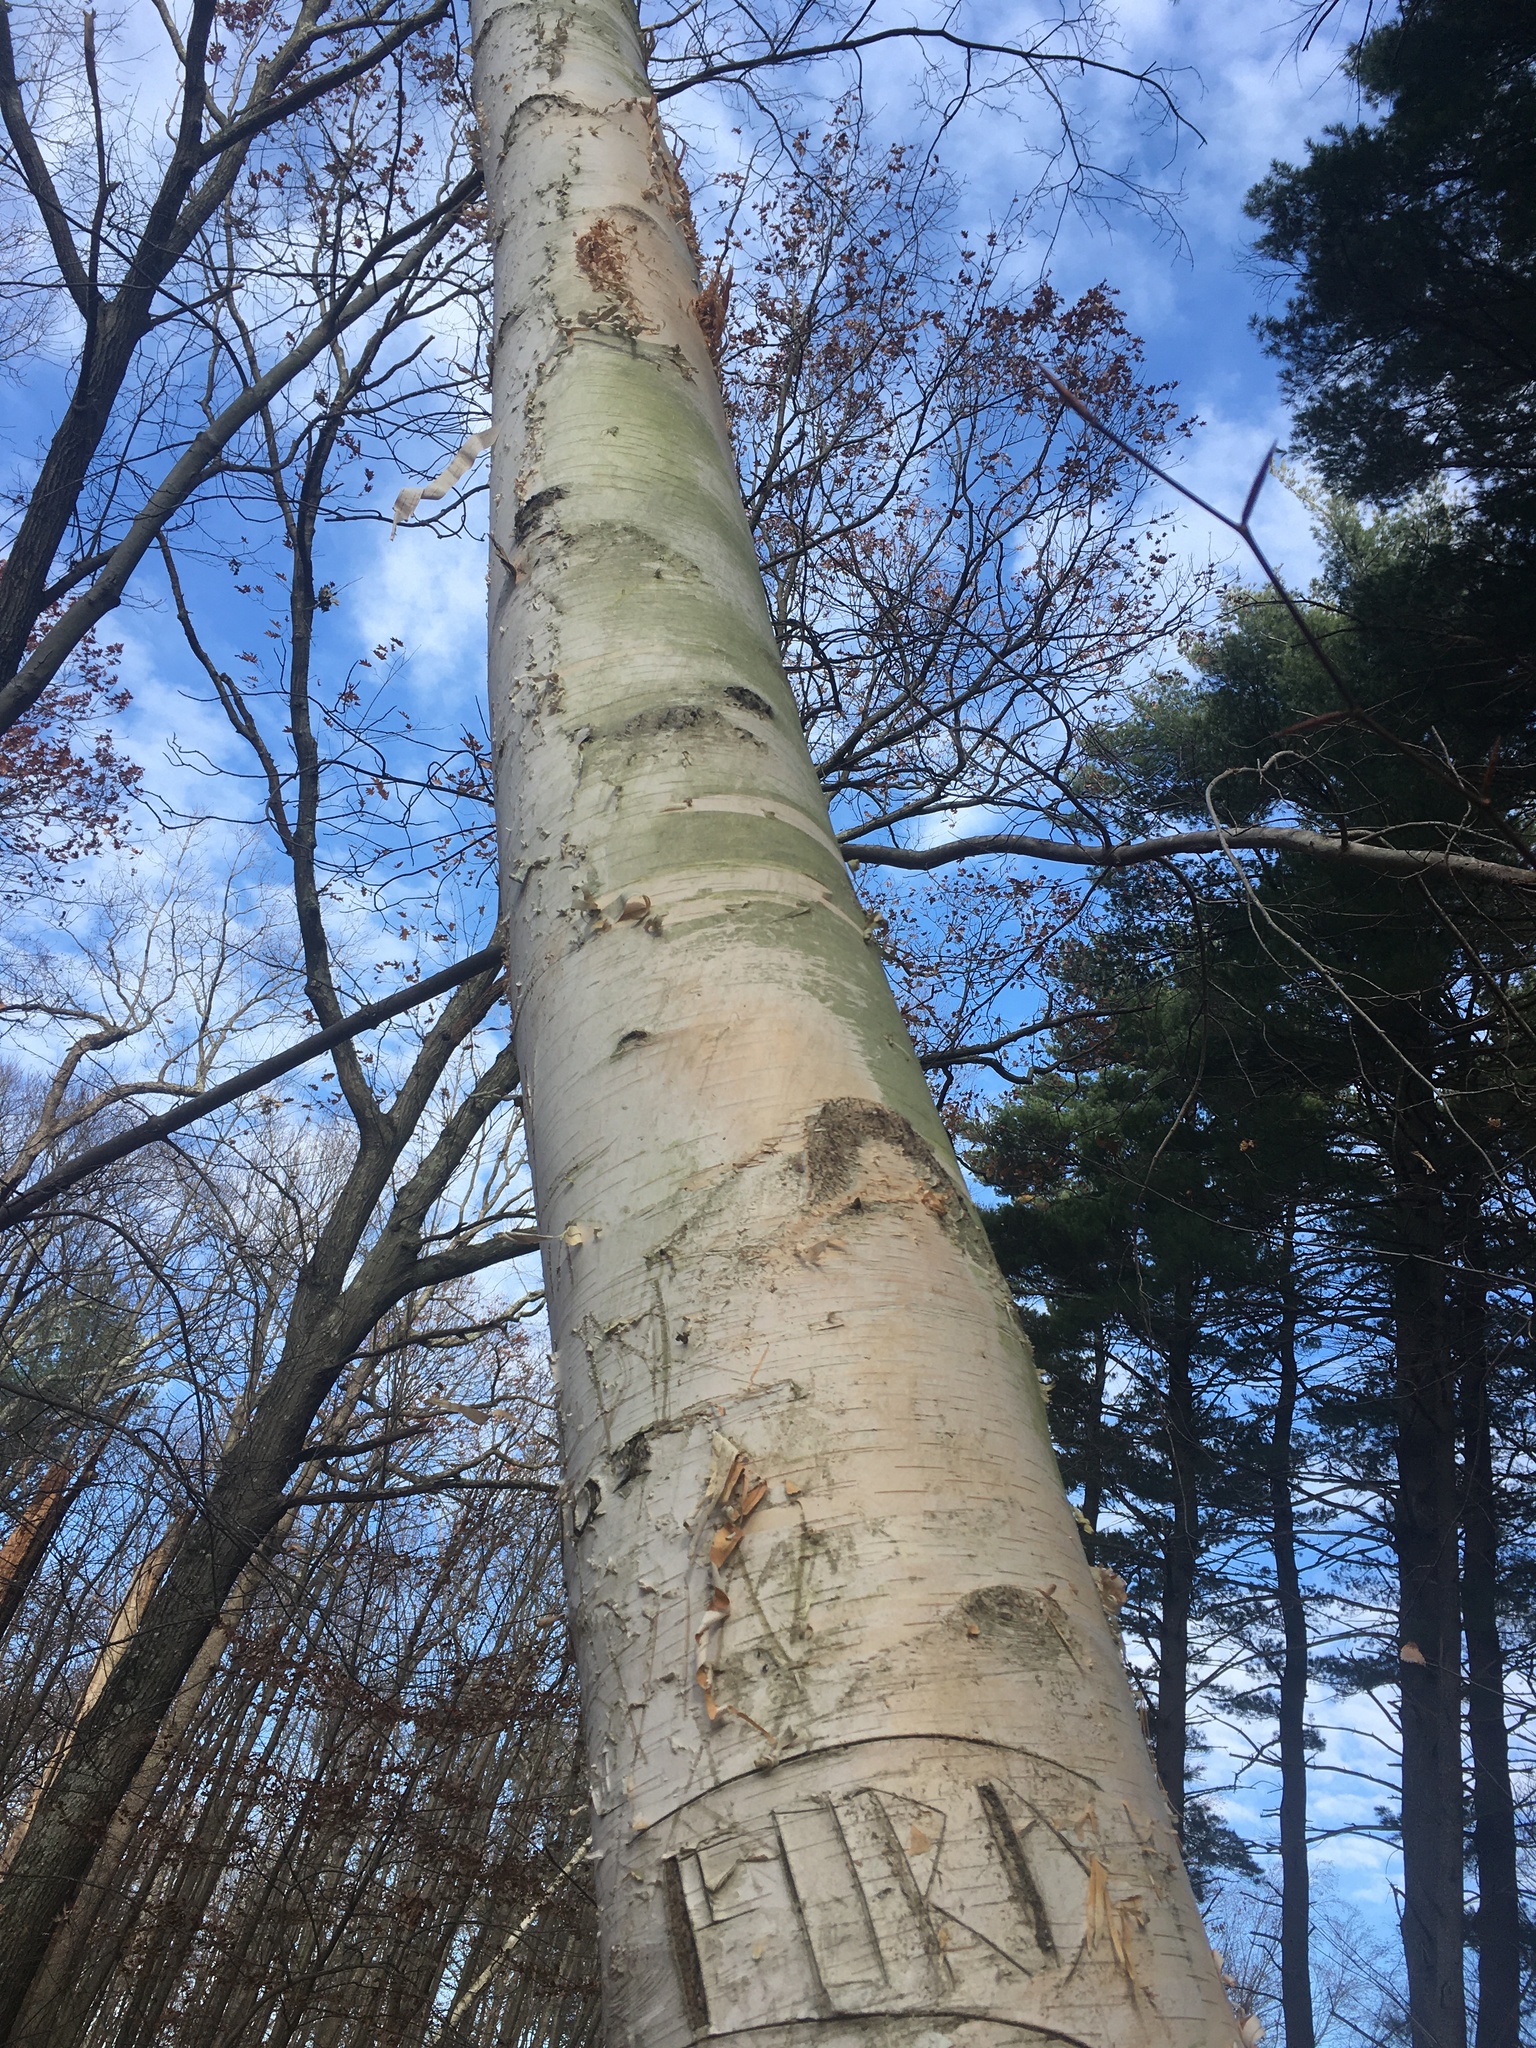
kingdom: Plantae
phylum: Tracheophyta
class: Magnoliopsida
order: Fagales
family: Betulaceae
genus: Betula
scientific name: Betula papyrifera
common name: Paper birch
